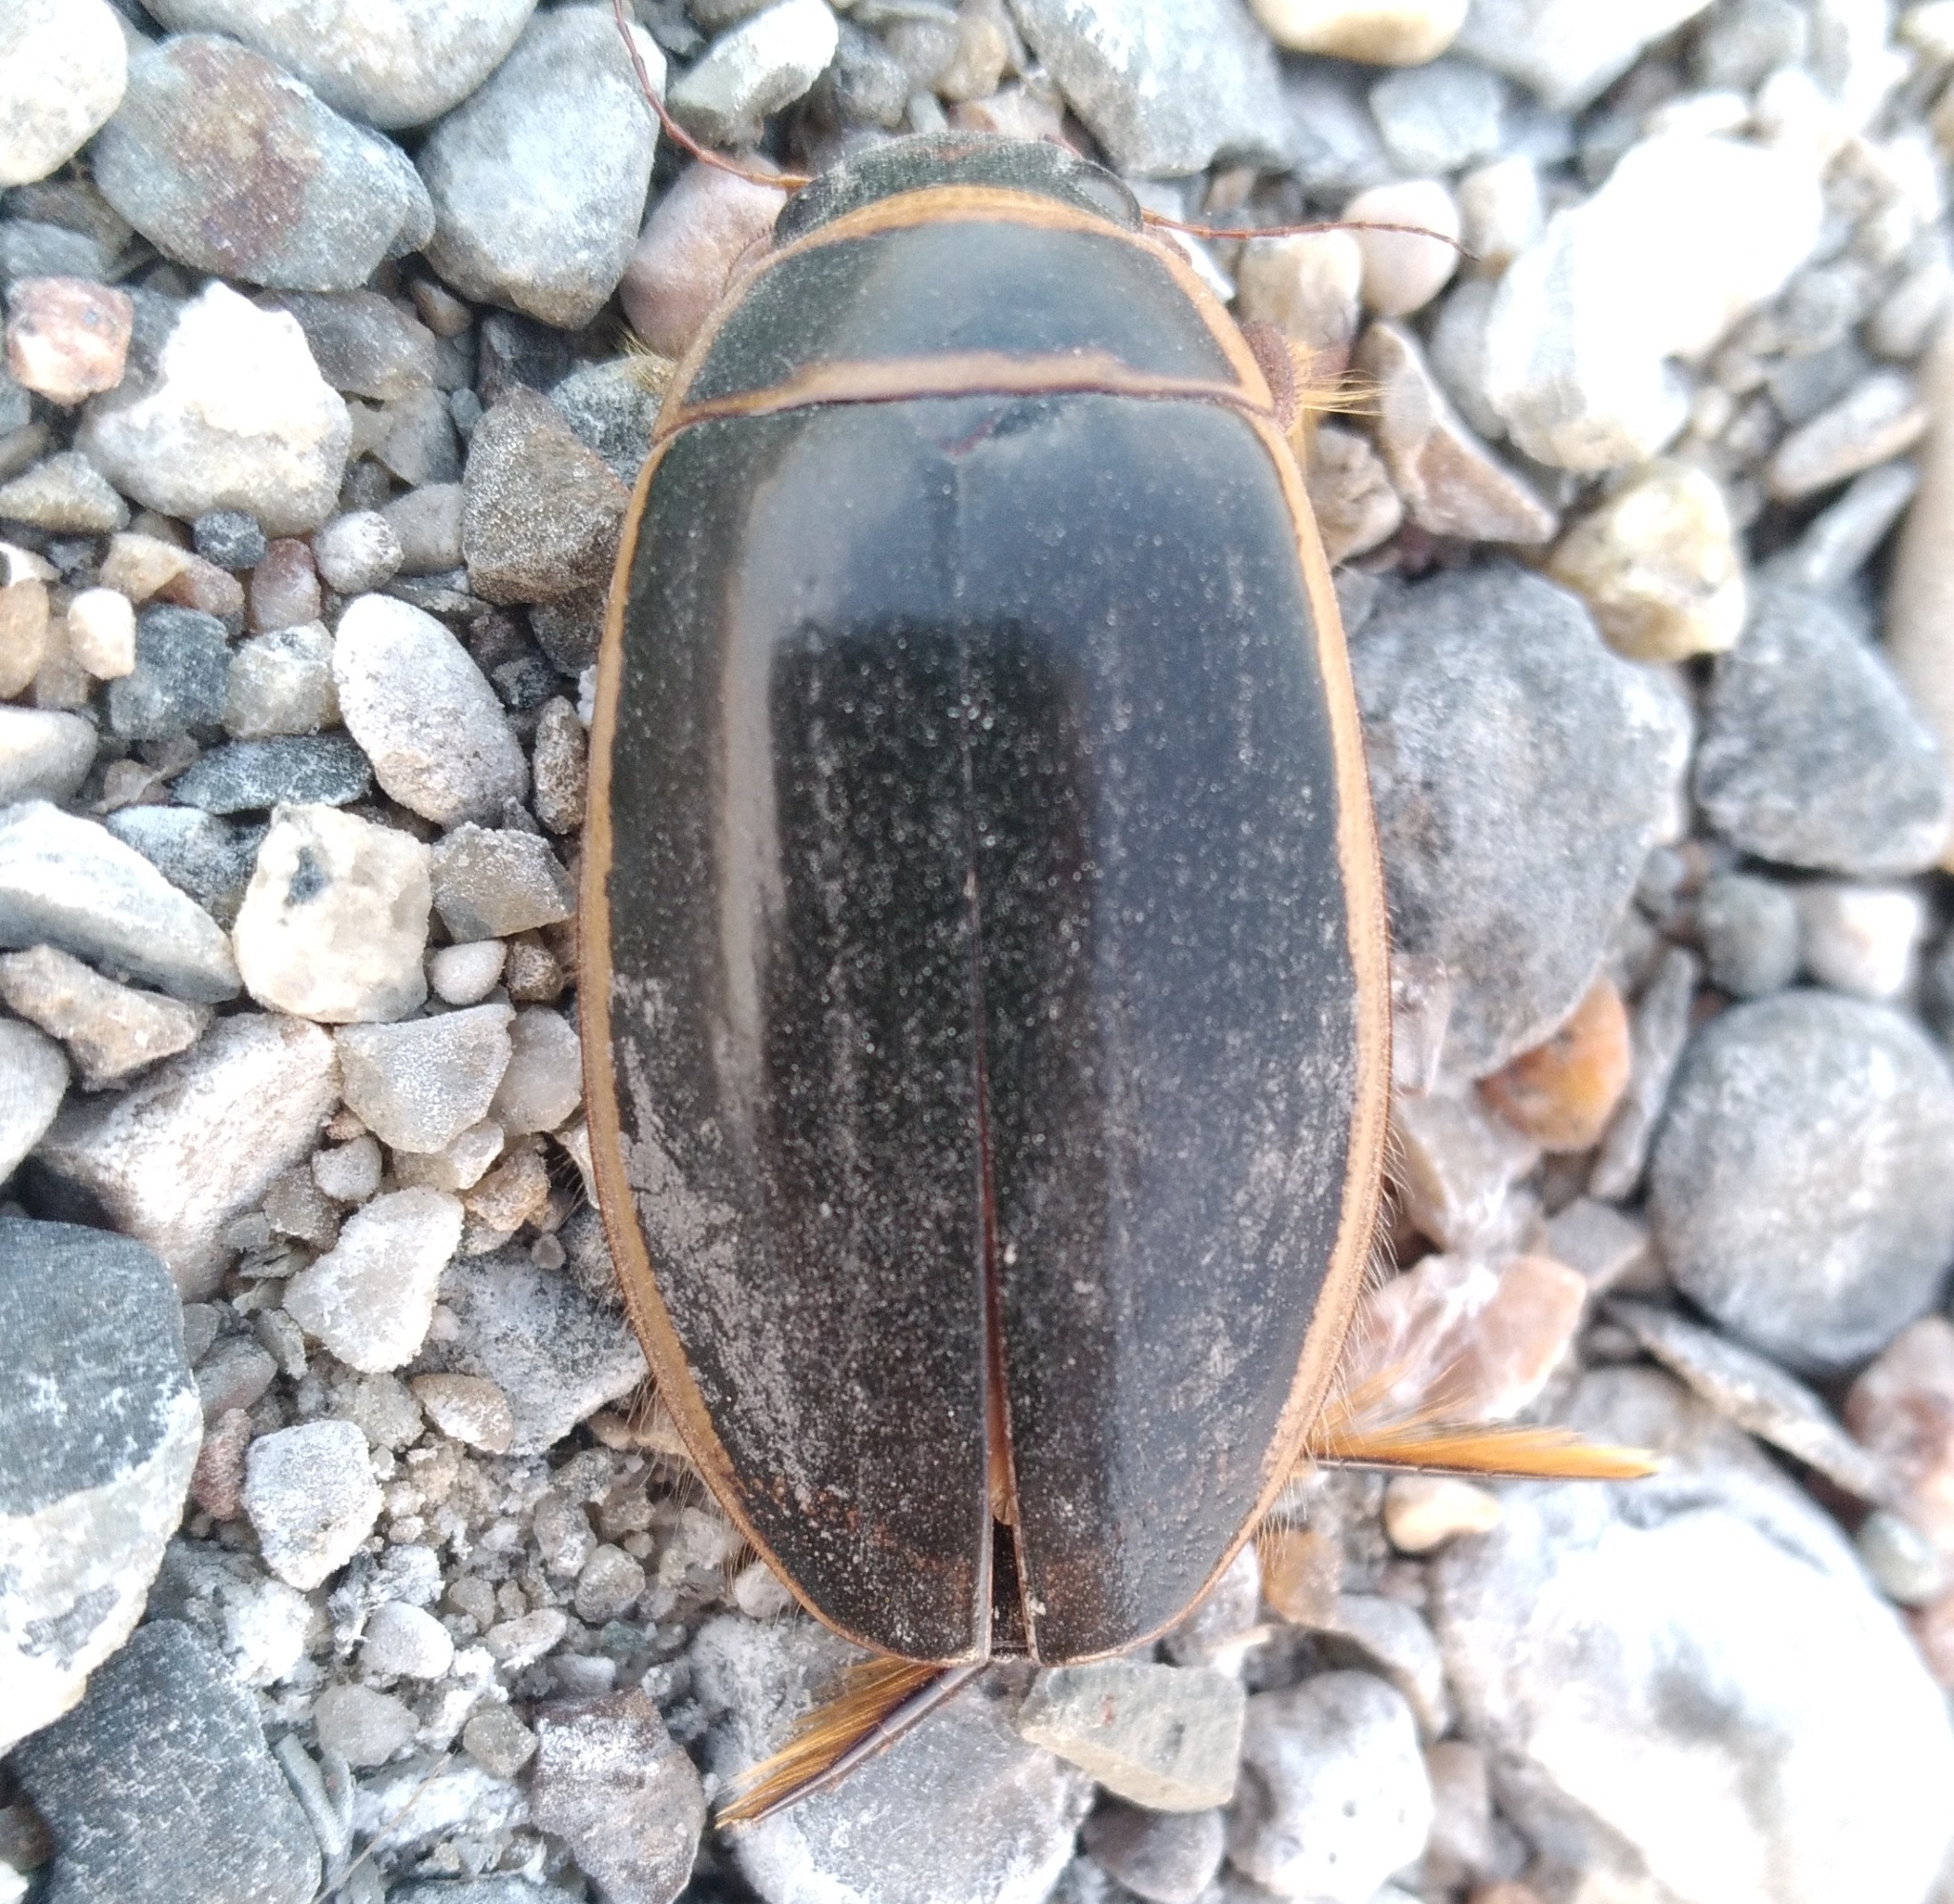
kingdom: Animalia
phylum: Arthropoda
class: Insecta
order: Coleoptera
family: Dytiscidae
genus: Dytiscus
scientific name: Dytiscus
